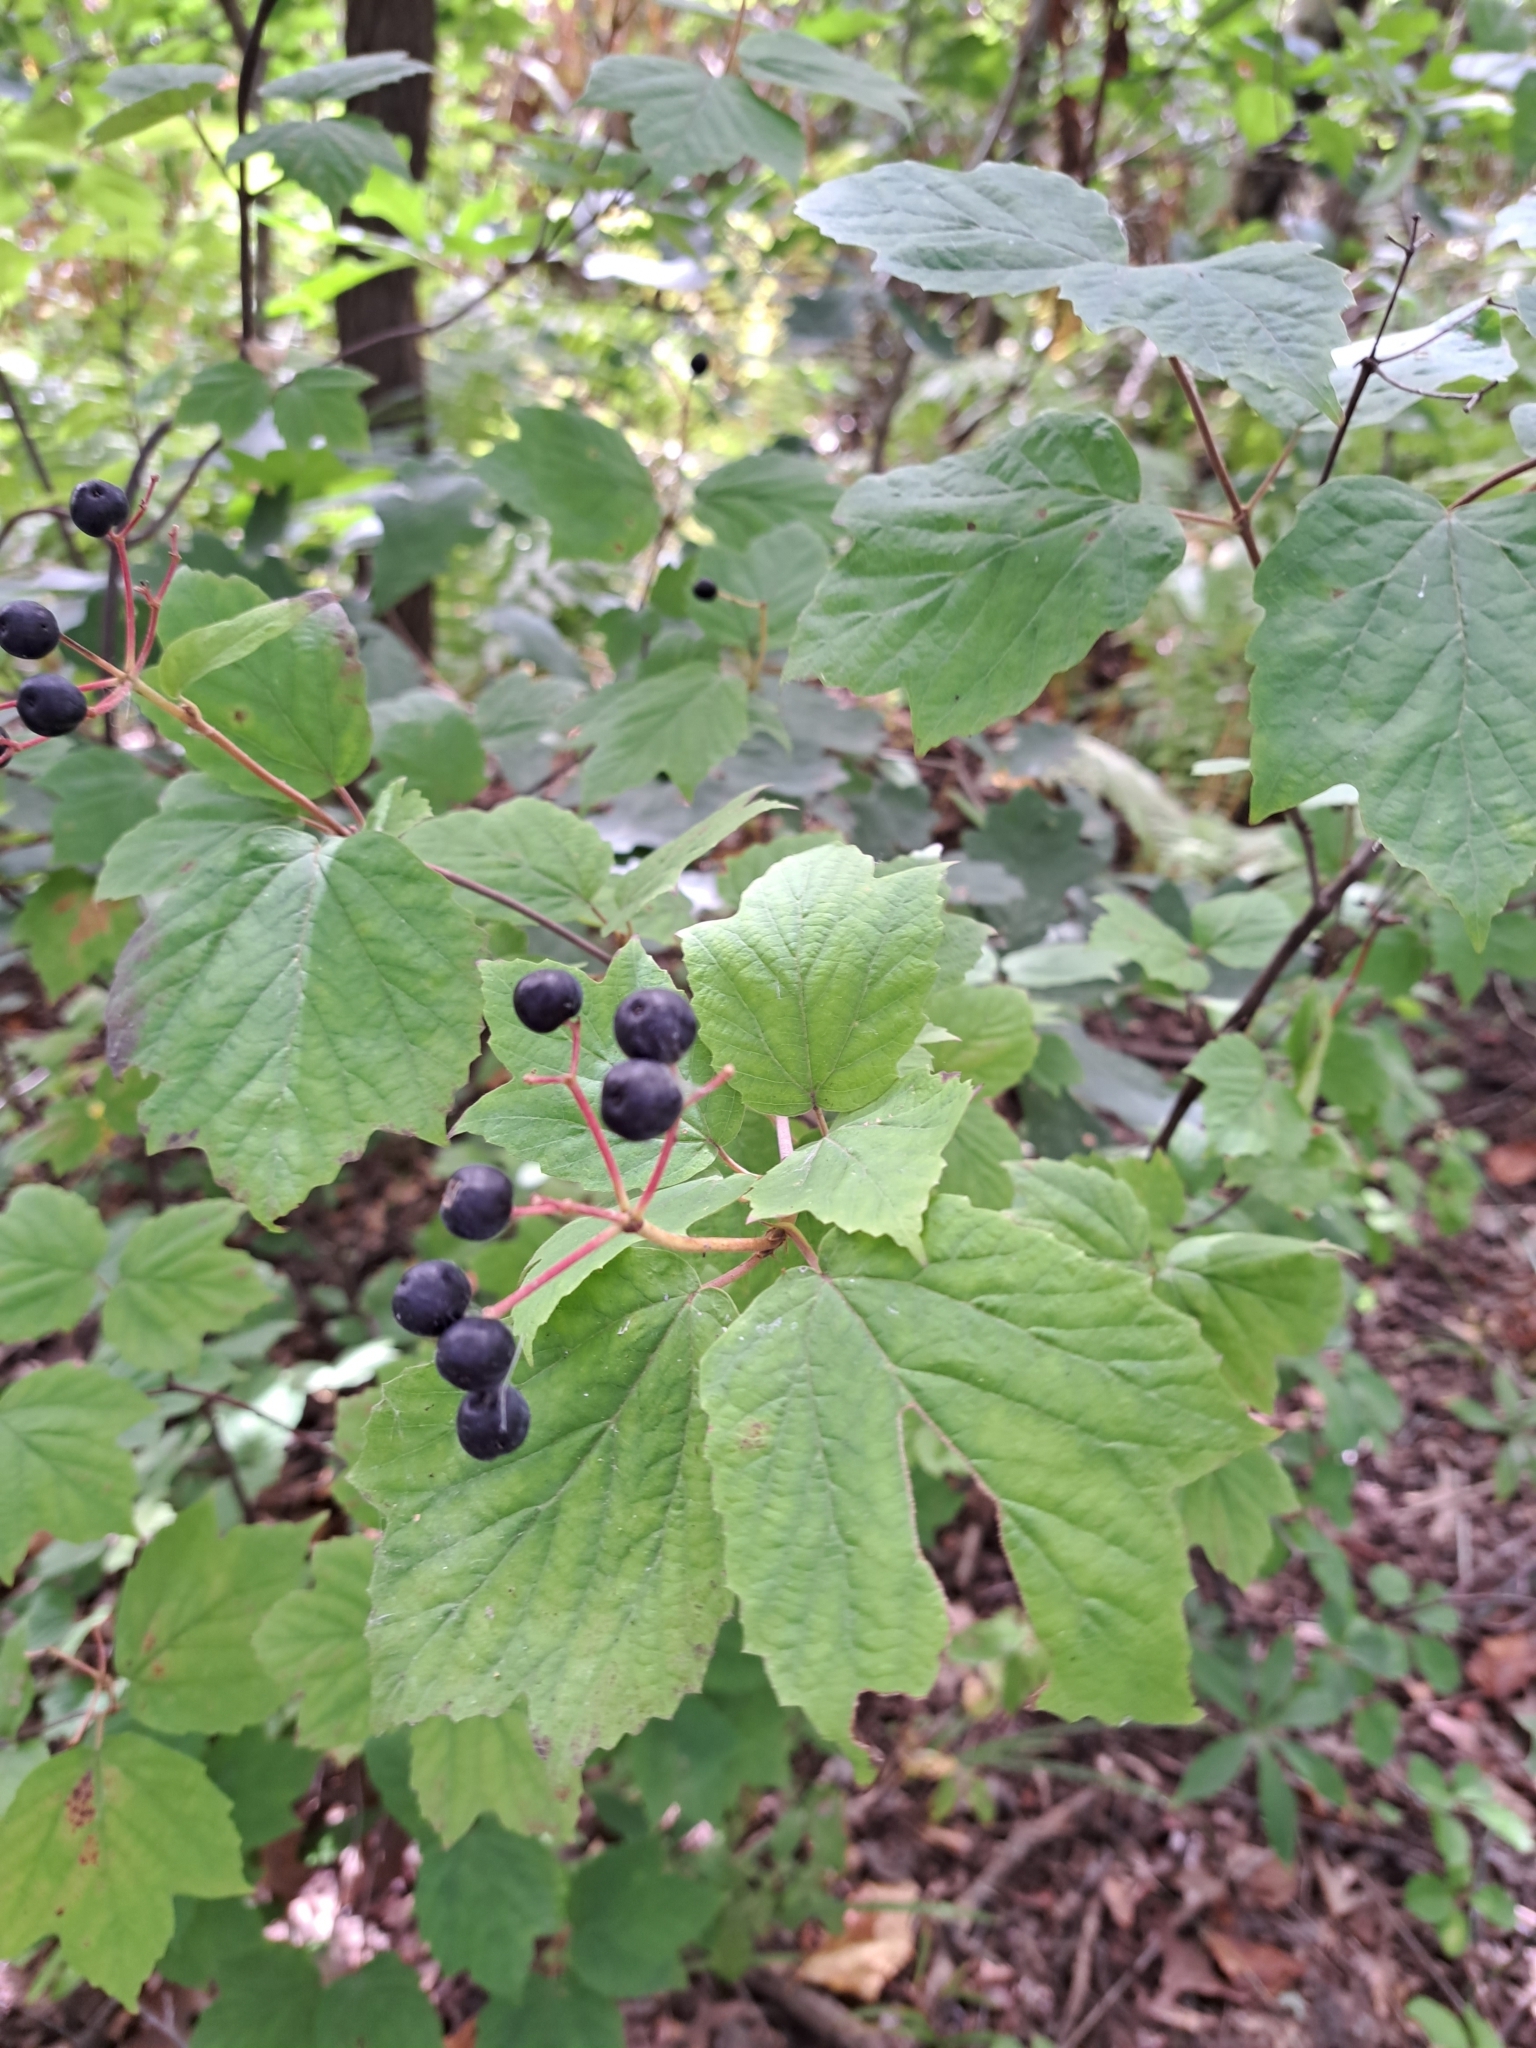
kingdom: Plantae
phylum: Tracheophyta
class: Magnoliopsida
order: Dipsacales
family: Viburnaceae
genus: Viburnum
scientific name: Viburnum acerifolium
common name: Dockmackie
